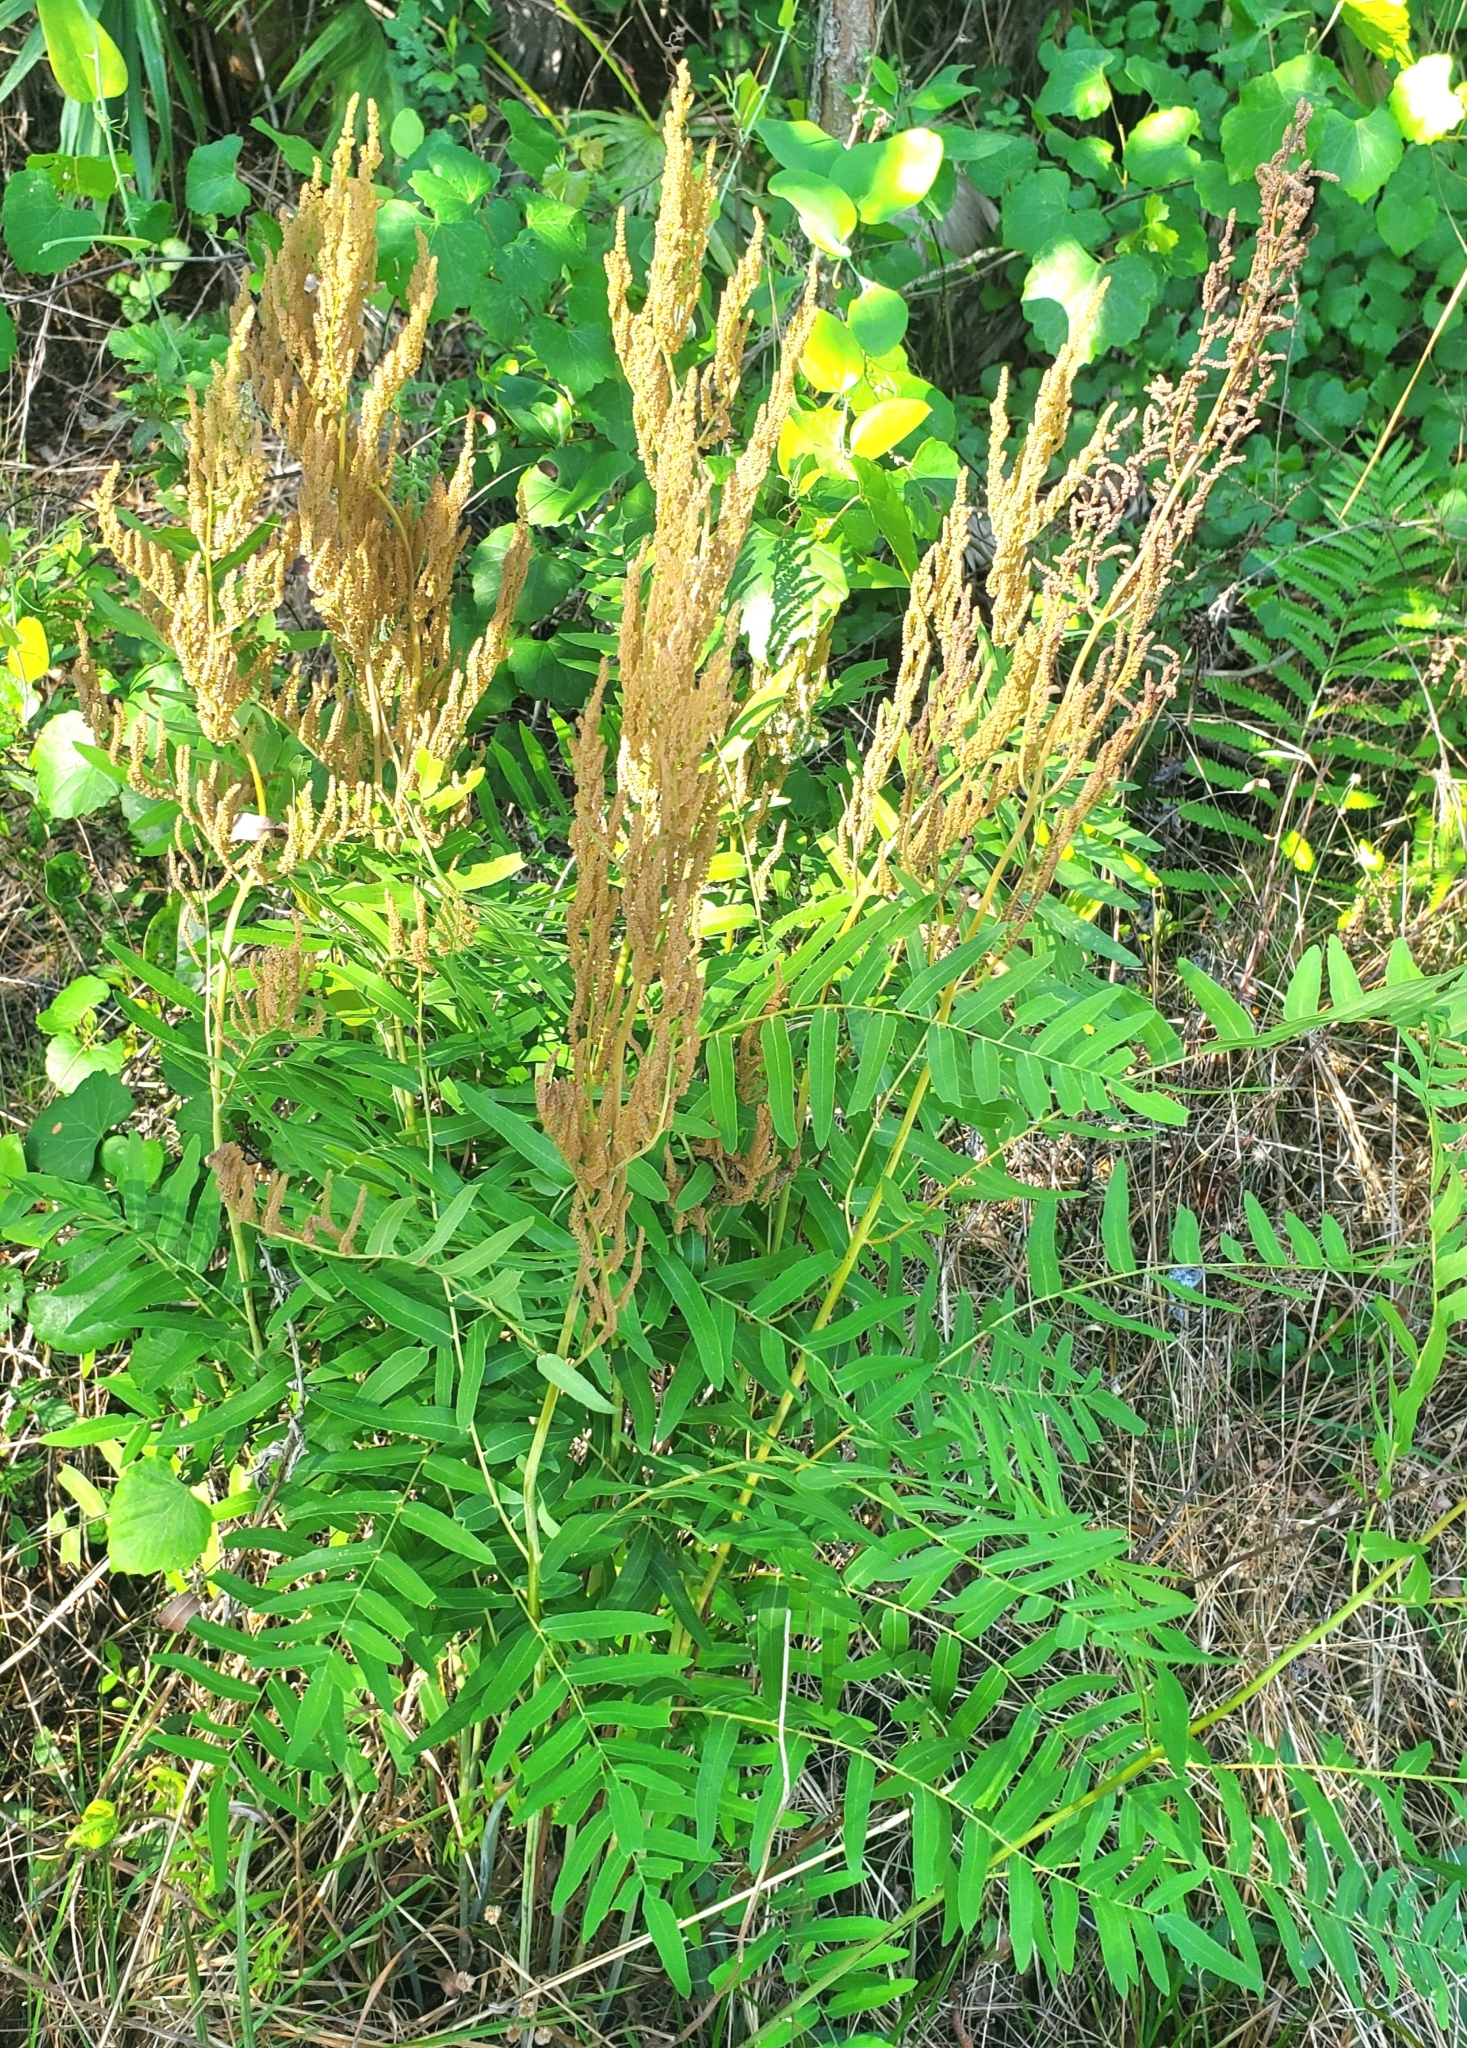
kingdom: Plantae
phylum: Tracheophyta
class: Polypodiopsida
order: Osmundales
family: Osmundaceae
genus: Osmunda
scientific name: Osmunda spectabilis
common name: American royal fern
